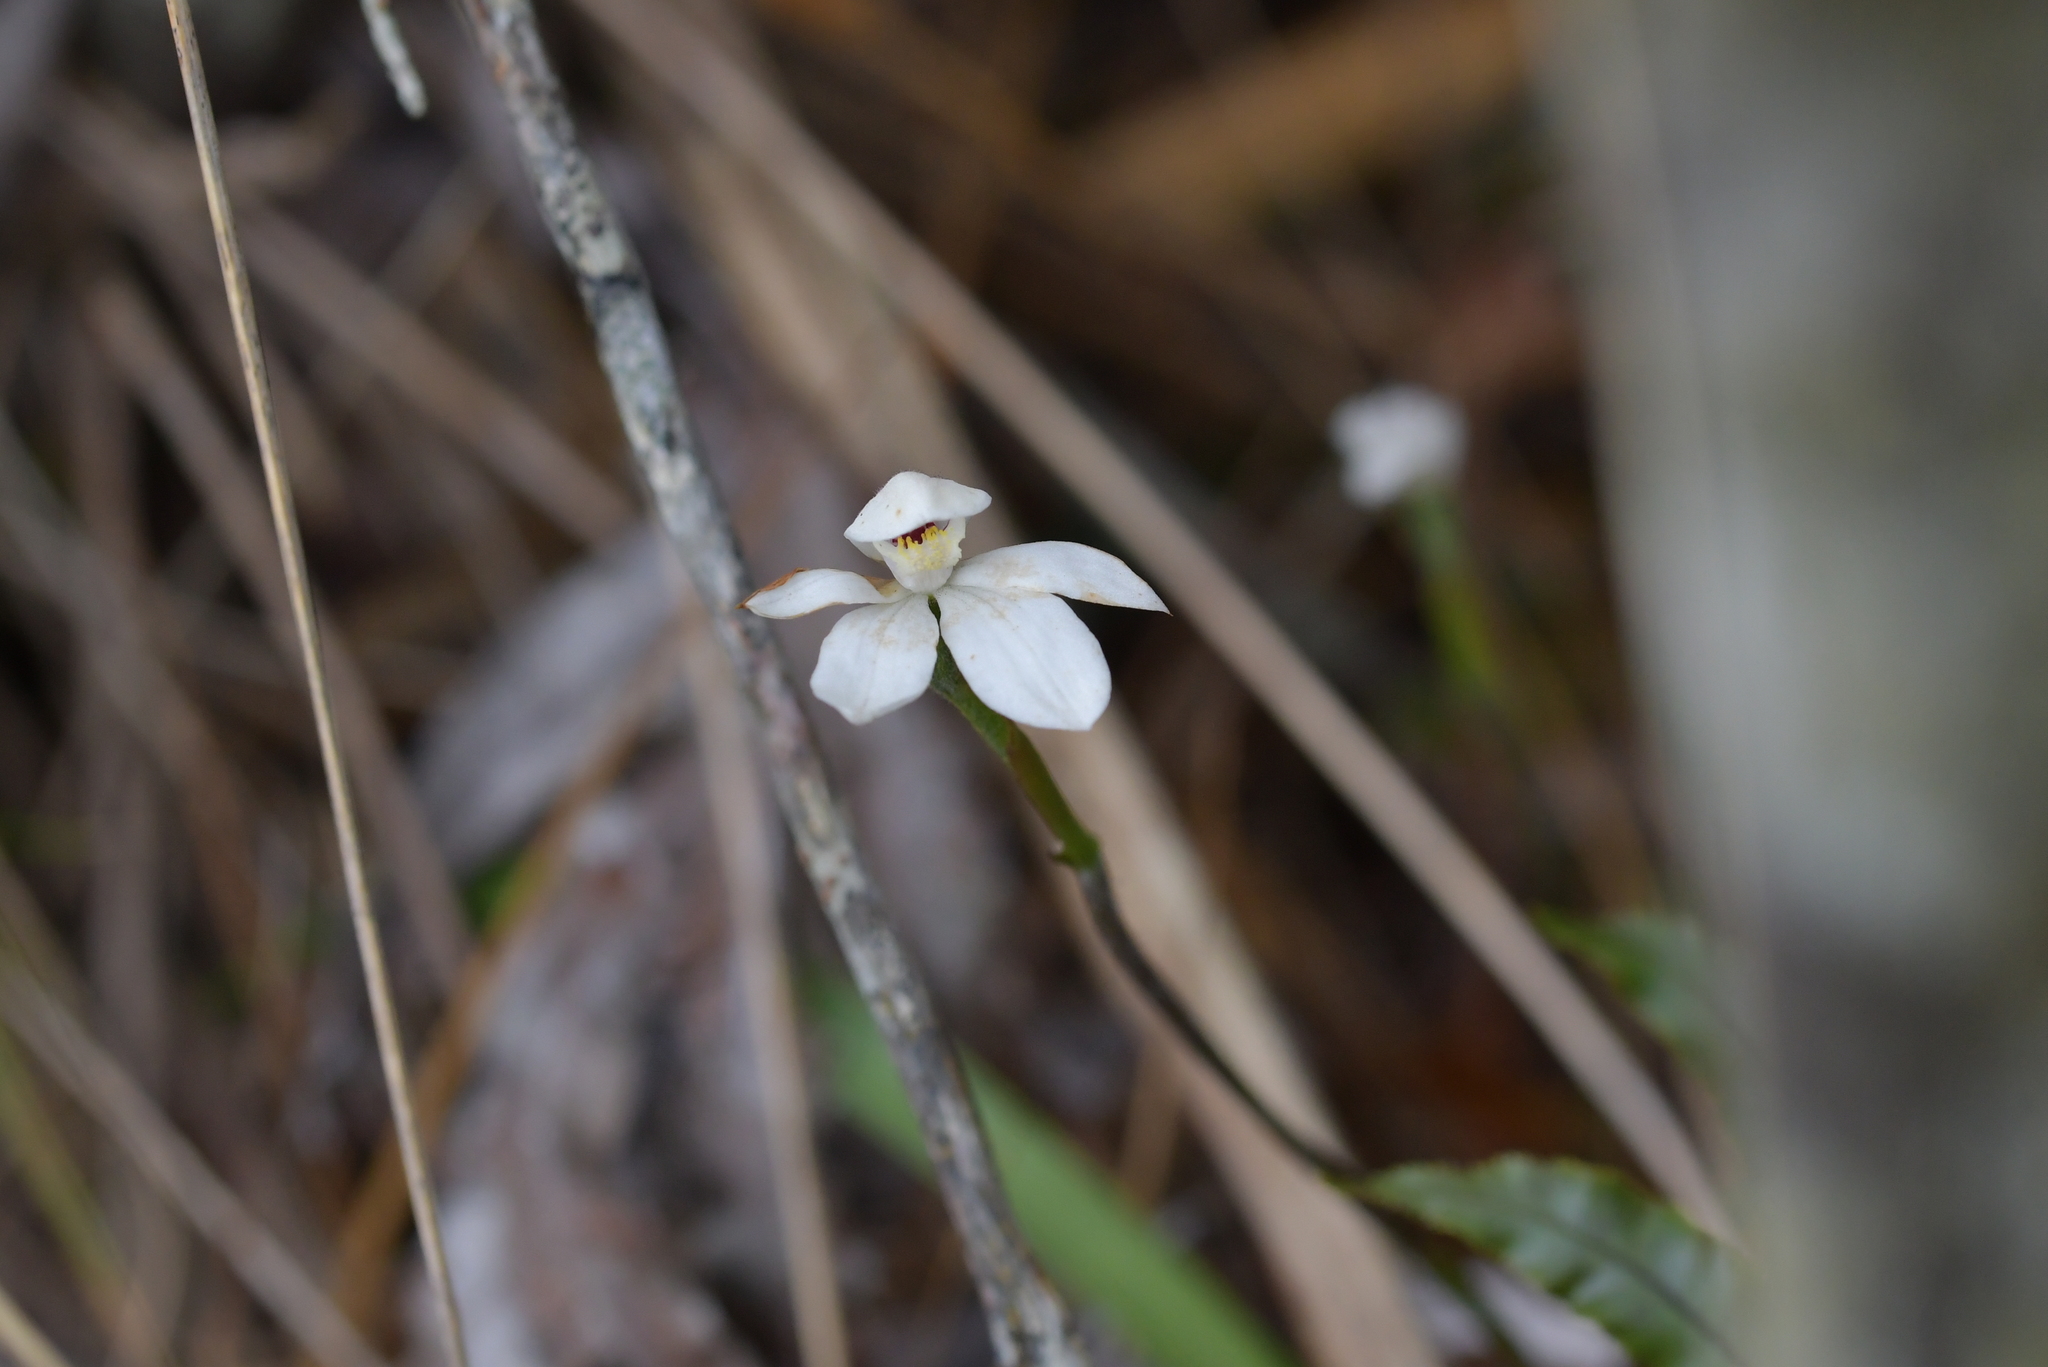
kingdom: Plantae
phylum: Tracheophyta
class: Liliopsida
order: Asparagales
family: Orchidaceae
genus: Caladenia
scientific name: Caladenia lyallii
